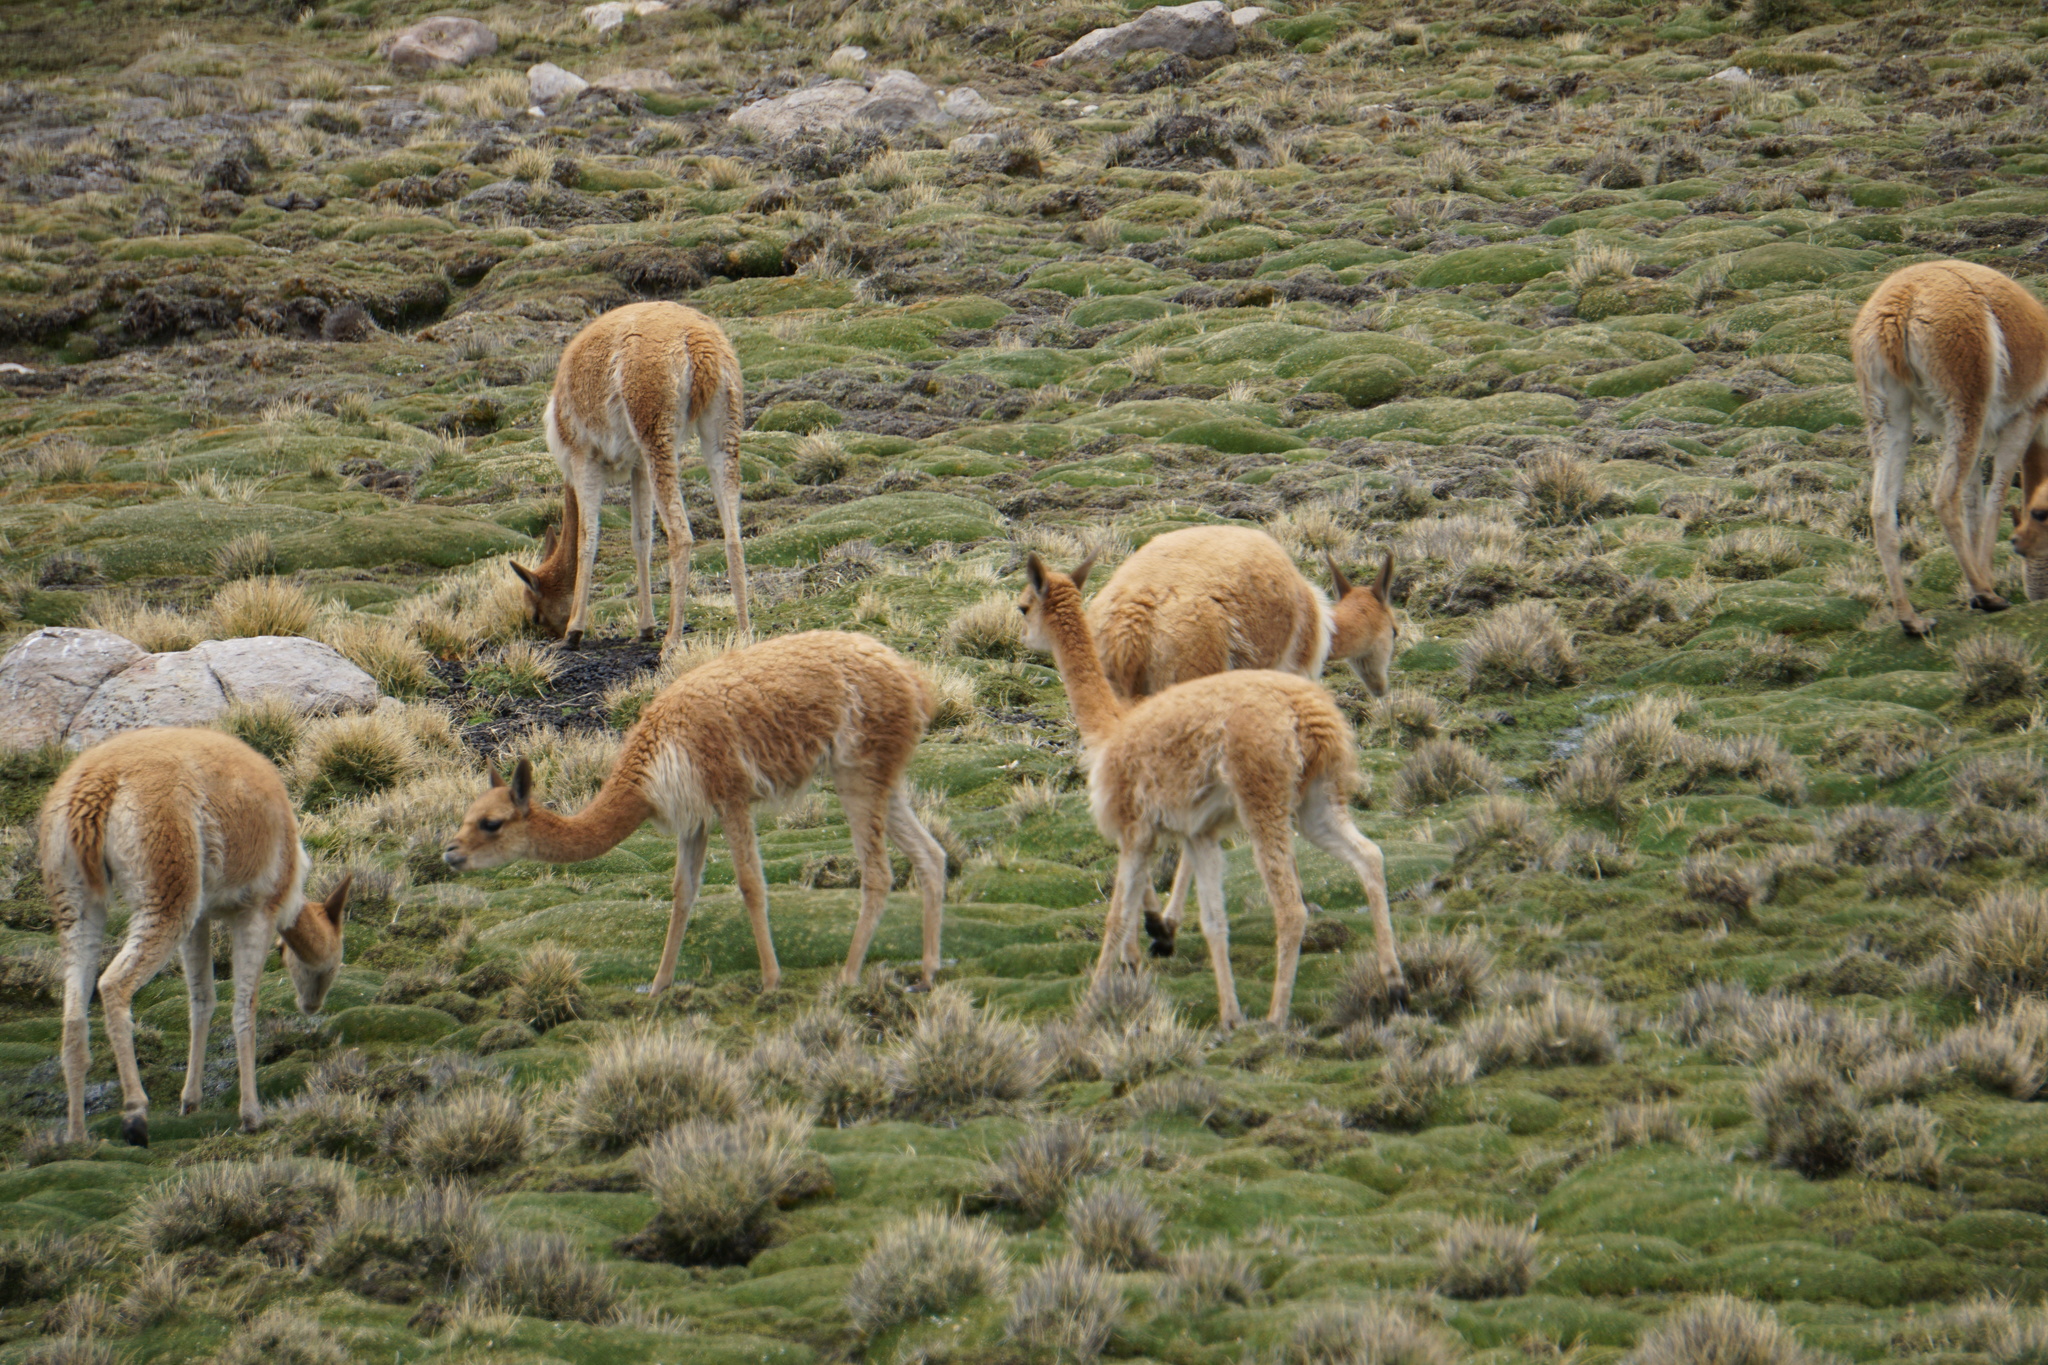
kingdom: Animalia
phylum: Chordata
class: Mammalia
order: Artiodactyla
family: Camelidae
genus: Vicugna
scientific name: Vicugna vicugna
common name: Vicugna
